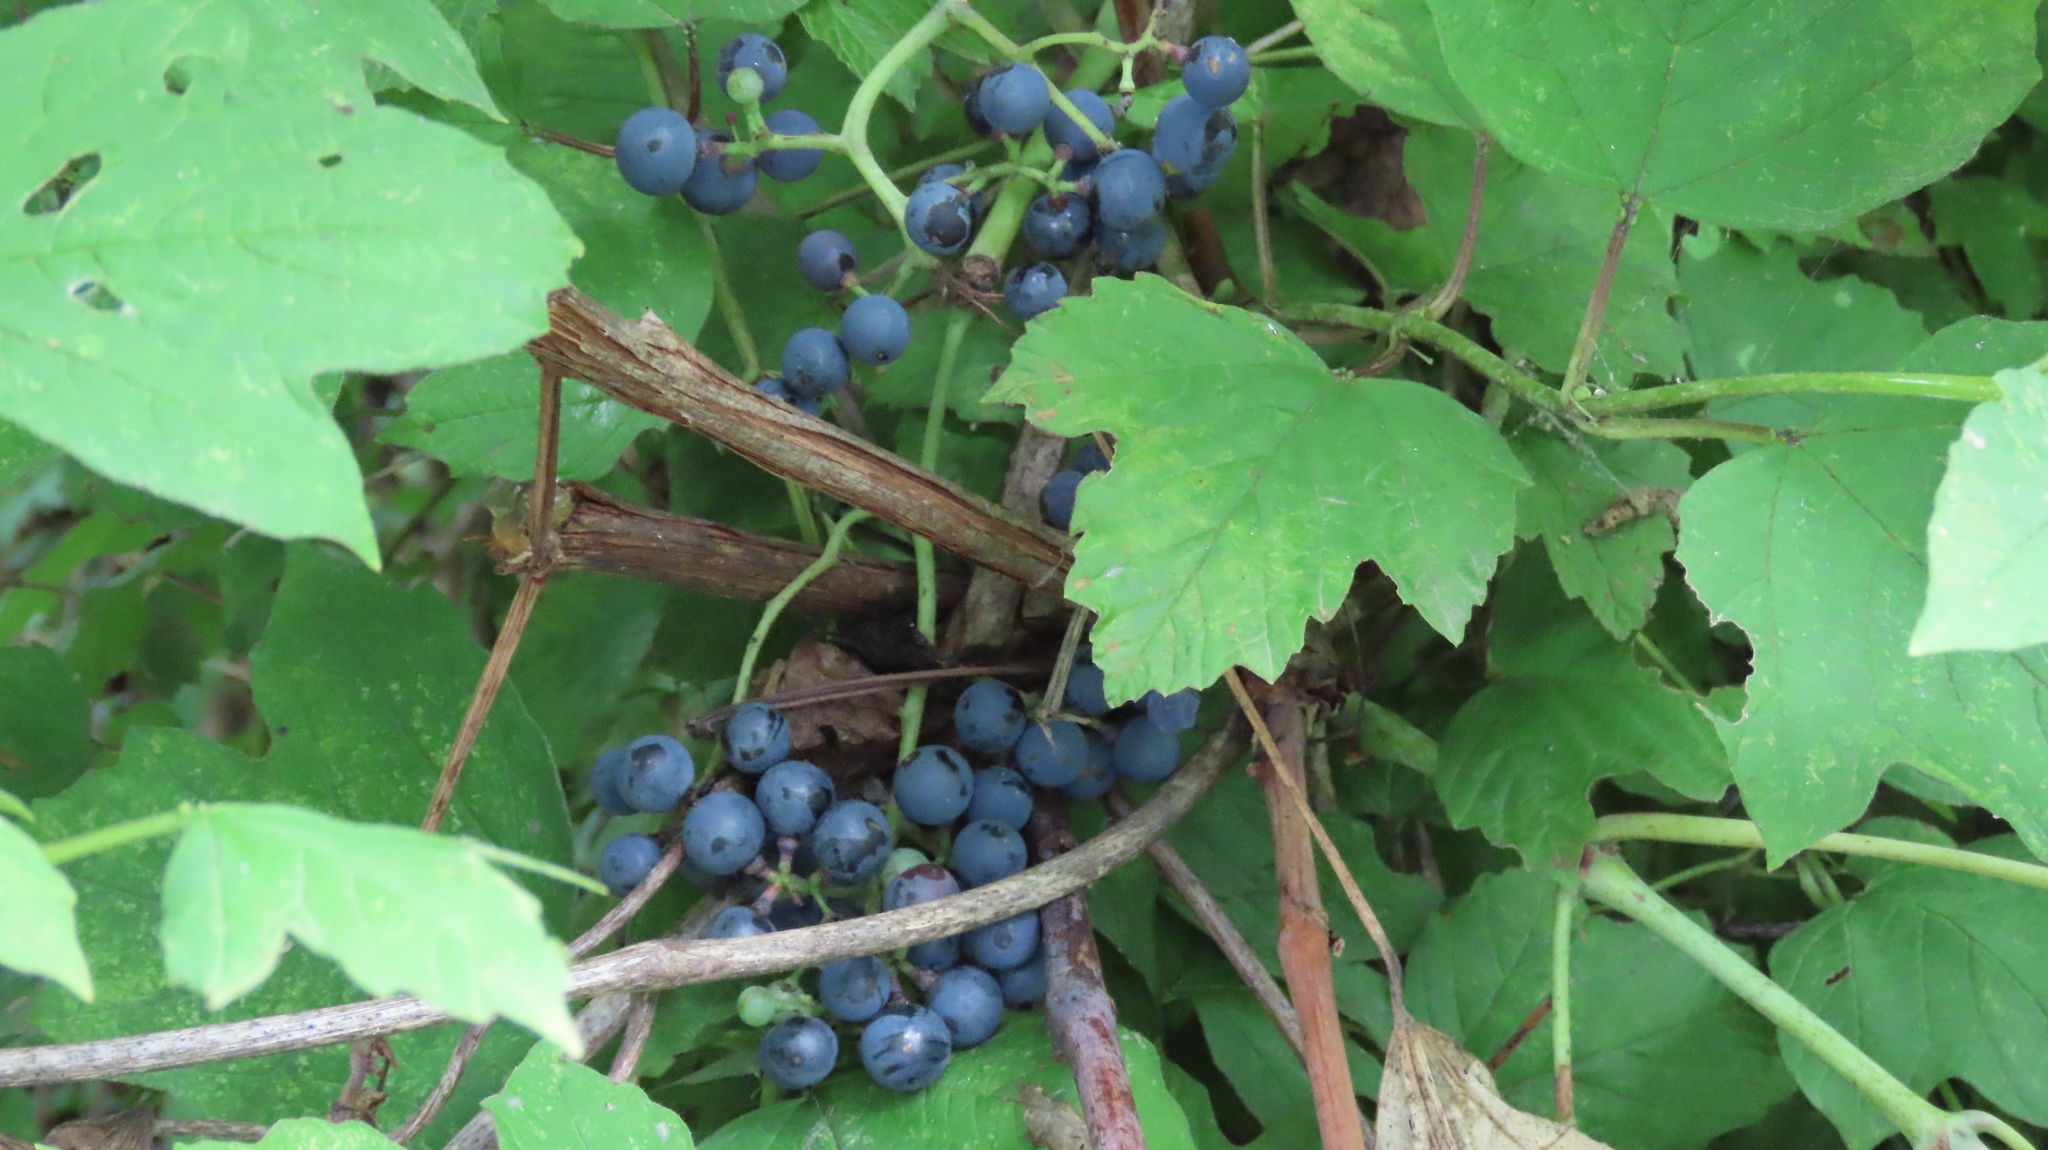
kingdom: Plantae
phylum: Tracheophyta
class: Magnoliopsida
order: Vitales
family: Vitaceae
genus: Vitis
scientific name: Vitis riparia
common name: Frost grape
